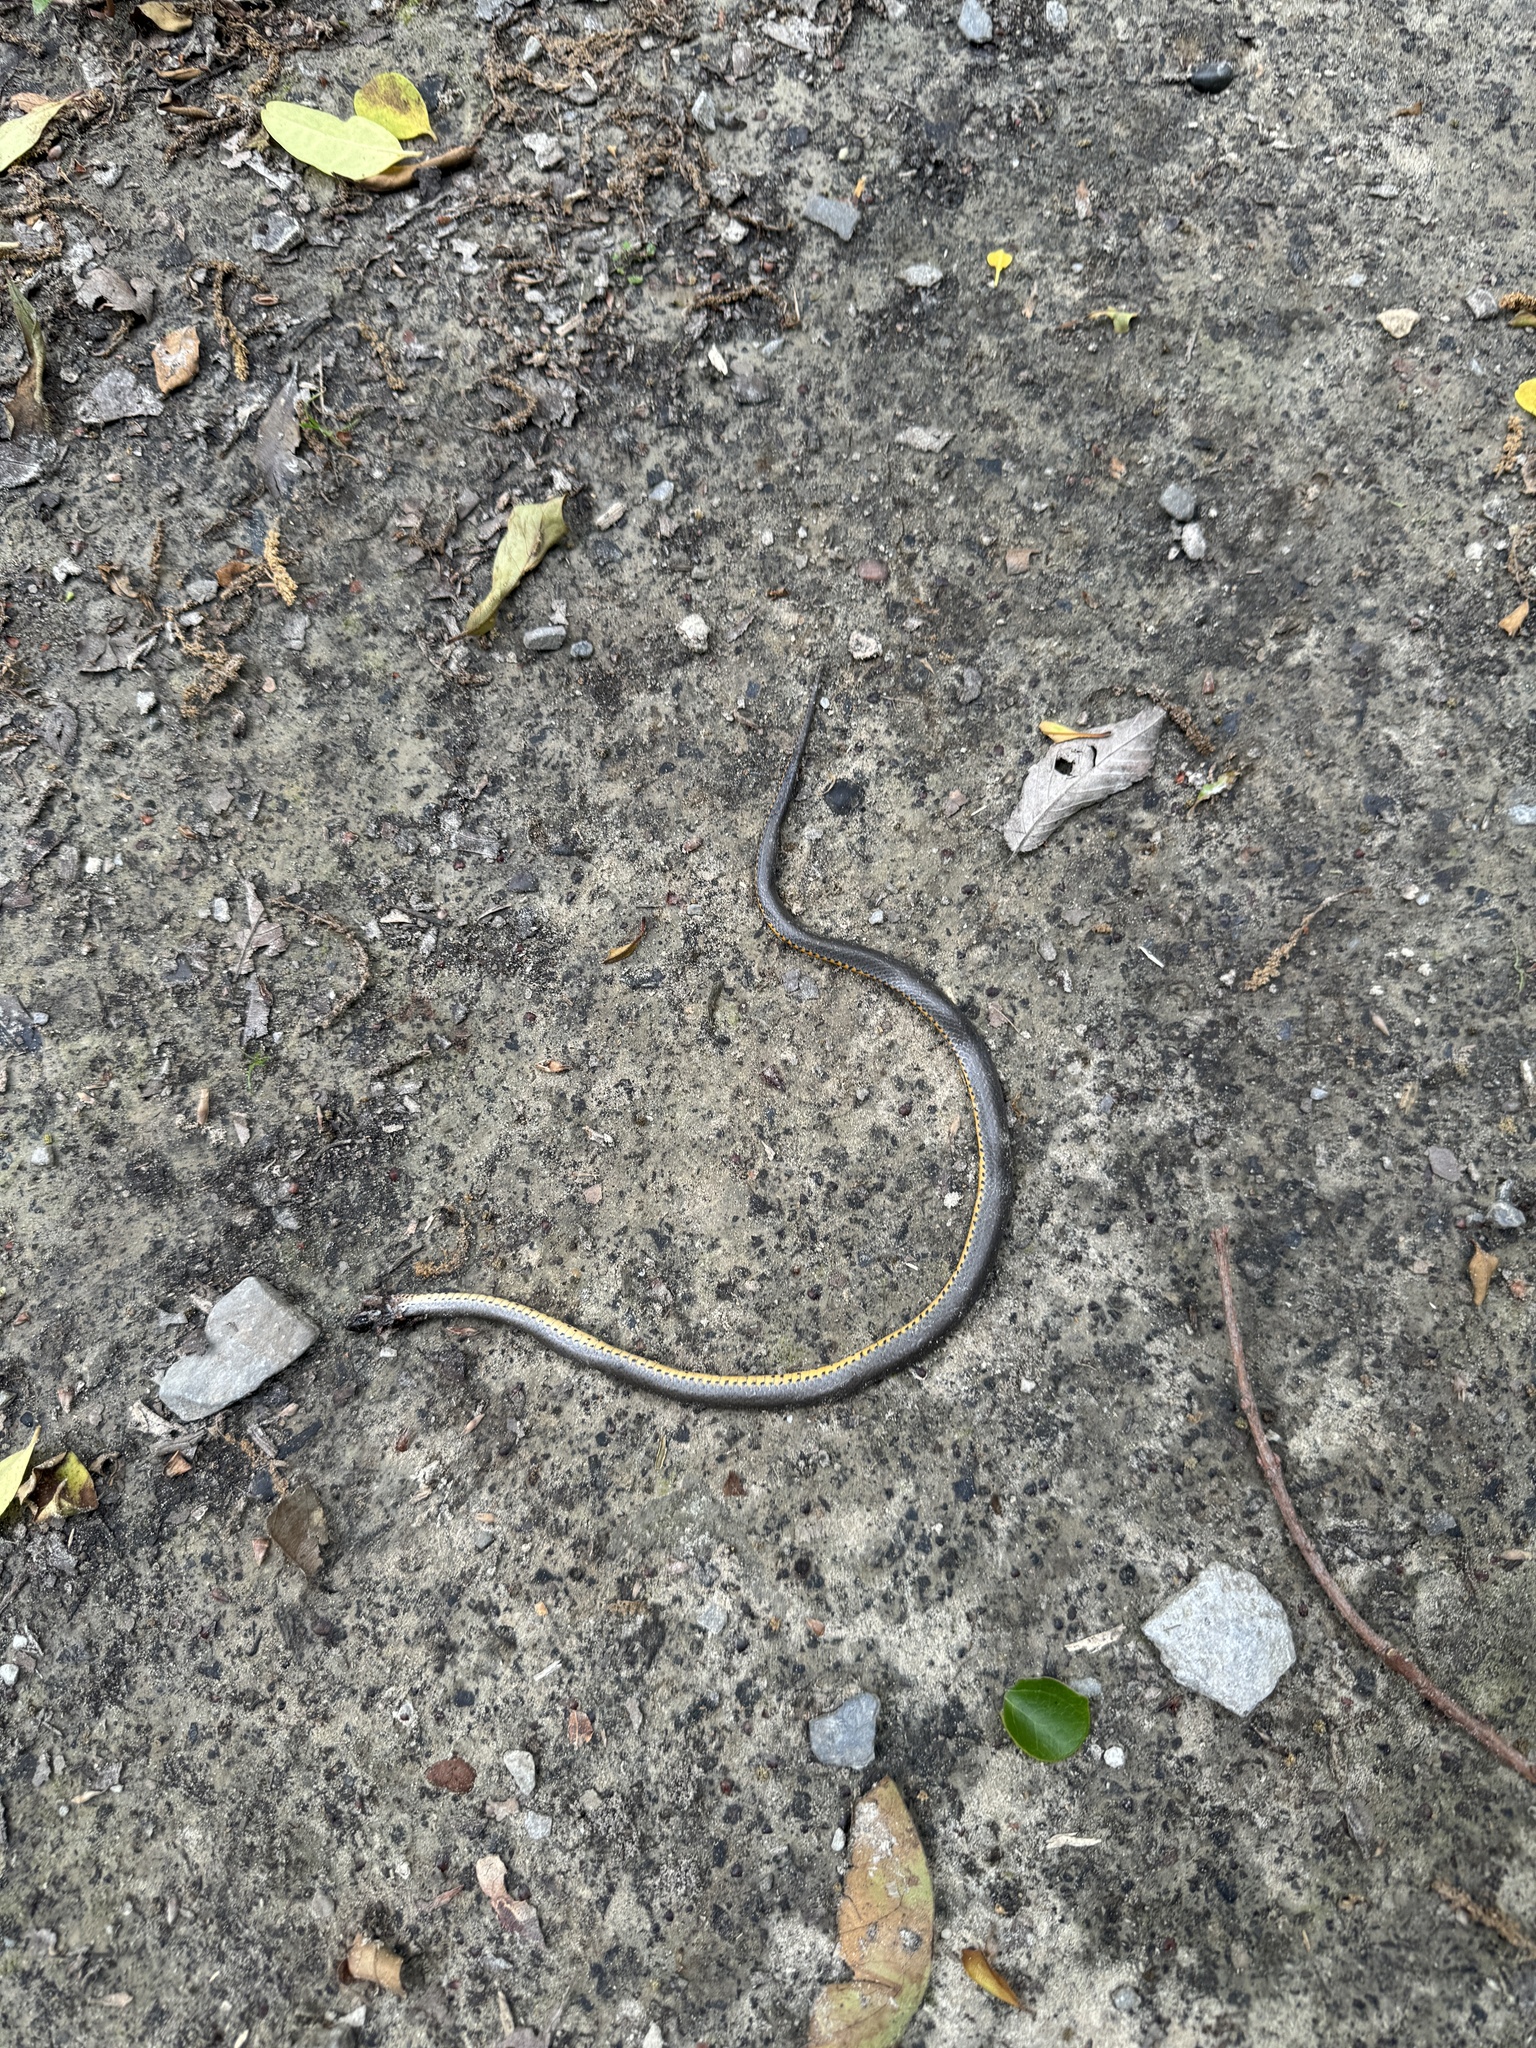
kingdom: Animalia
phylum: Chordata
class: Squamata
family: Colubridae
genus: Diadophis
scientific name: Diadophis punctatus
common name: Ringneck snake
